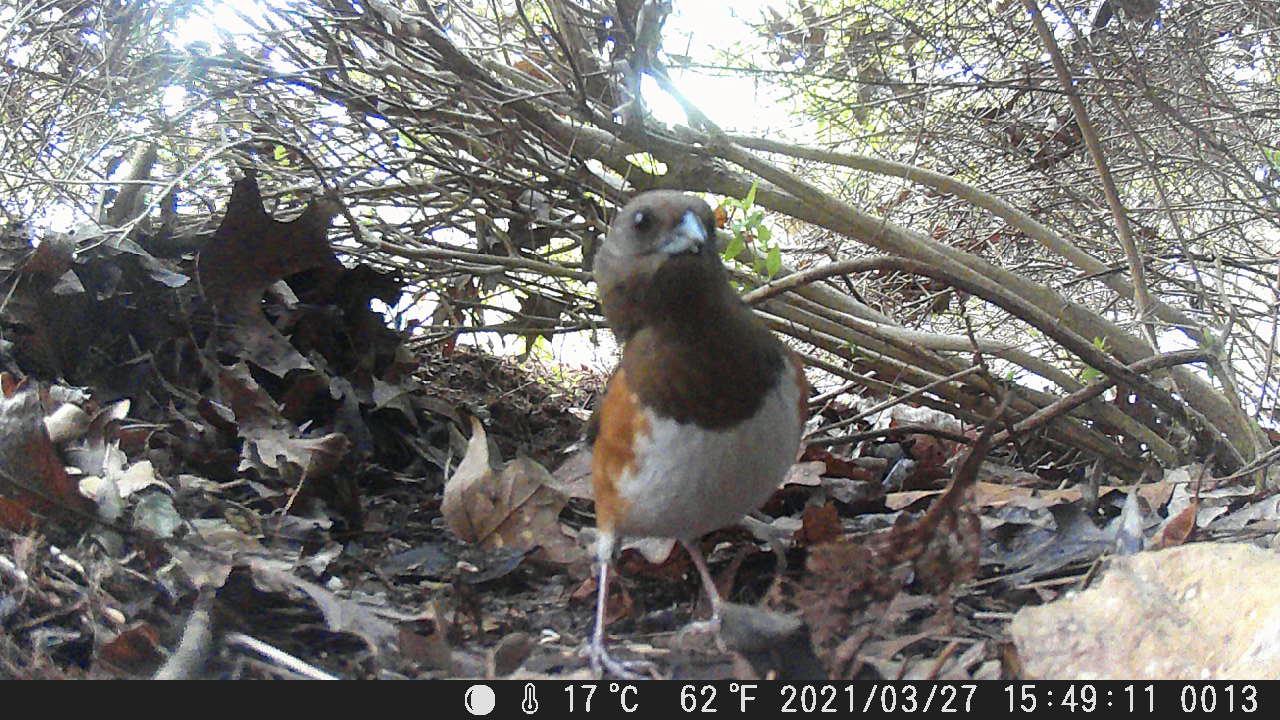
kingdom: Animalia
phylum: Chordata
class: Aves
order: Passeriformes
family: Passerellidae
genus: Pipilo
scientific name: Pipilo erythrophthalmus
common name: Eastern towhee
